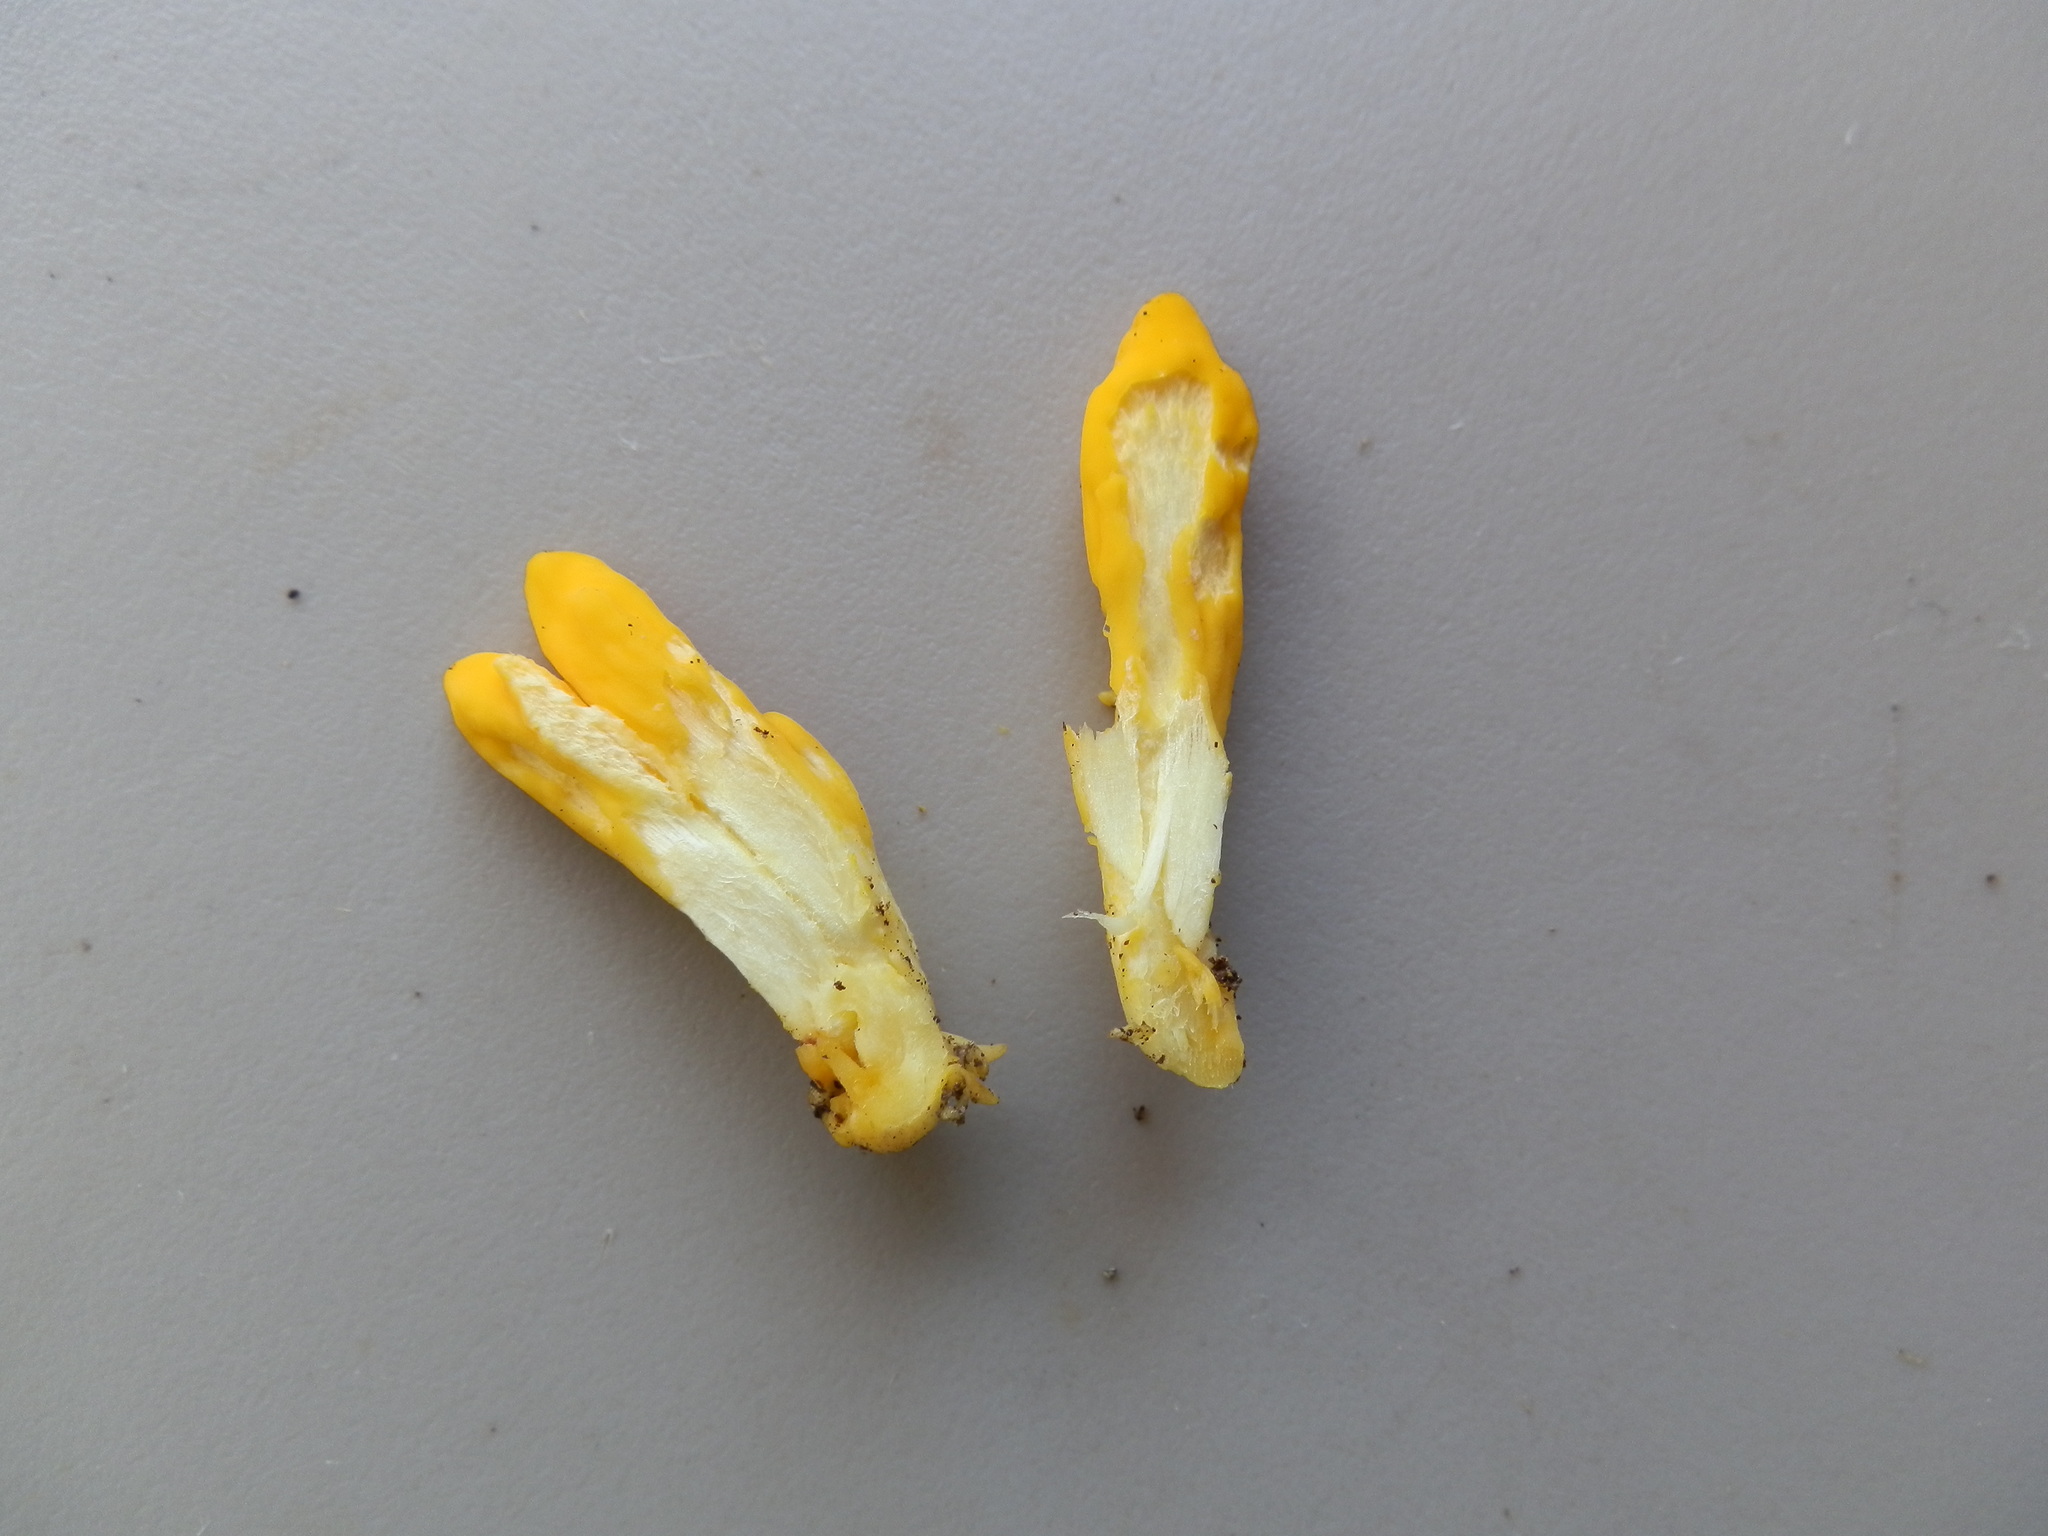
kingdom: Fungi
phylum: Ascomycota
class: Neolectomycetes
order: Neolectales
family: Neolectaceae
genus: Neolecta
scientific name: Neolecta irregularis
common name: Irregular earth tongue
